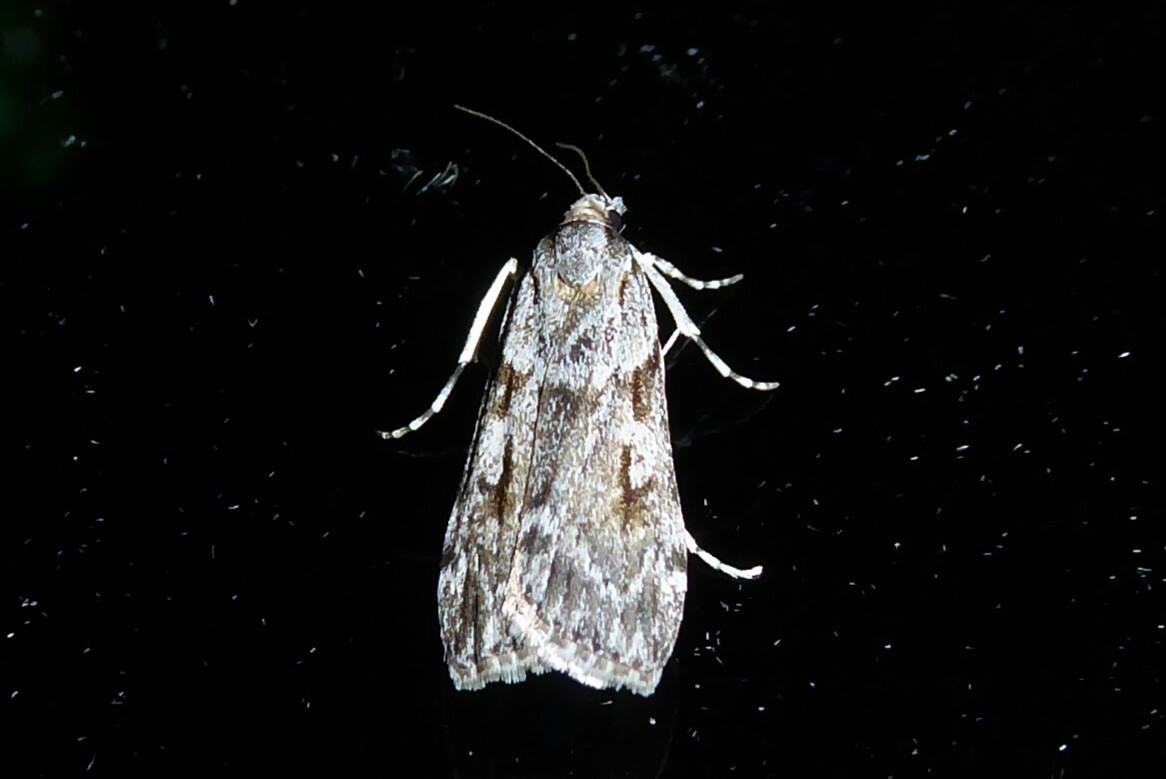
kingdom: Animalia
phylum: Arthropoda
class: Insecta
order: Lepidoptera
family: Crambidae
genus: Scoparia
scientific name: Scoparia halopis
